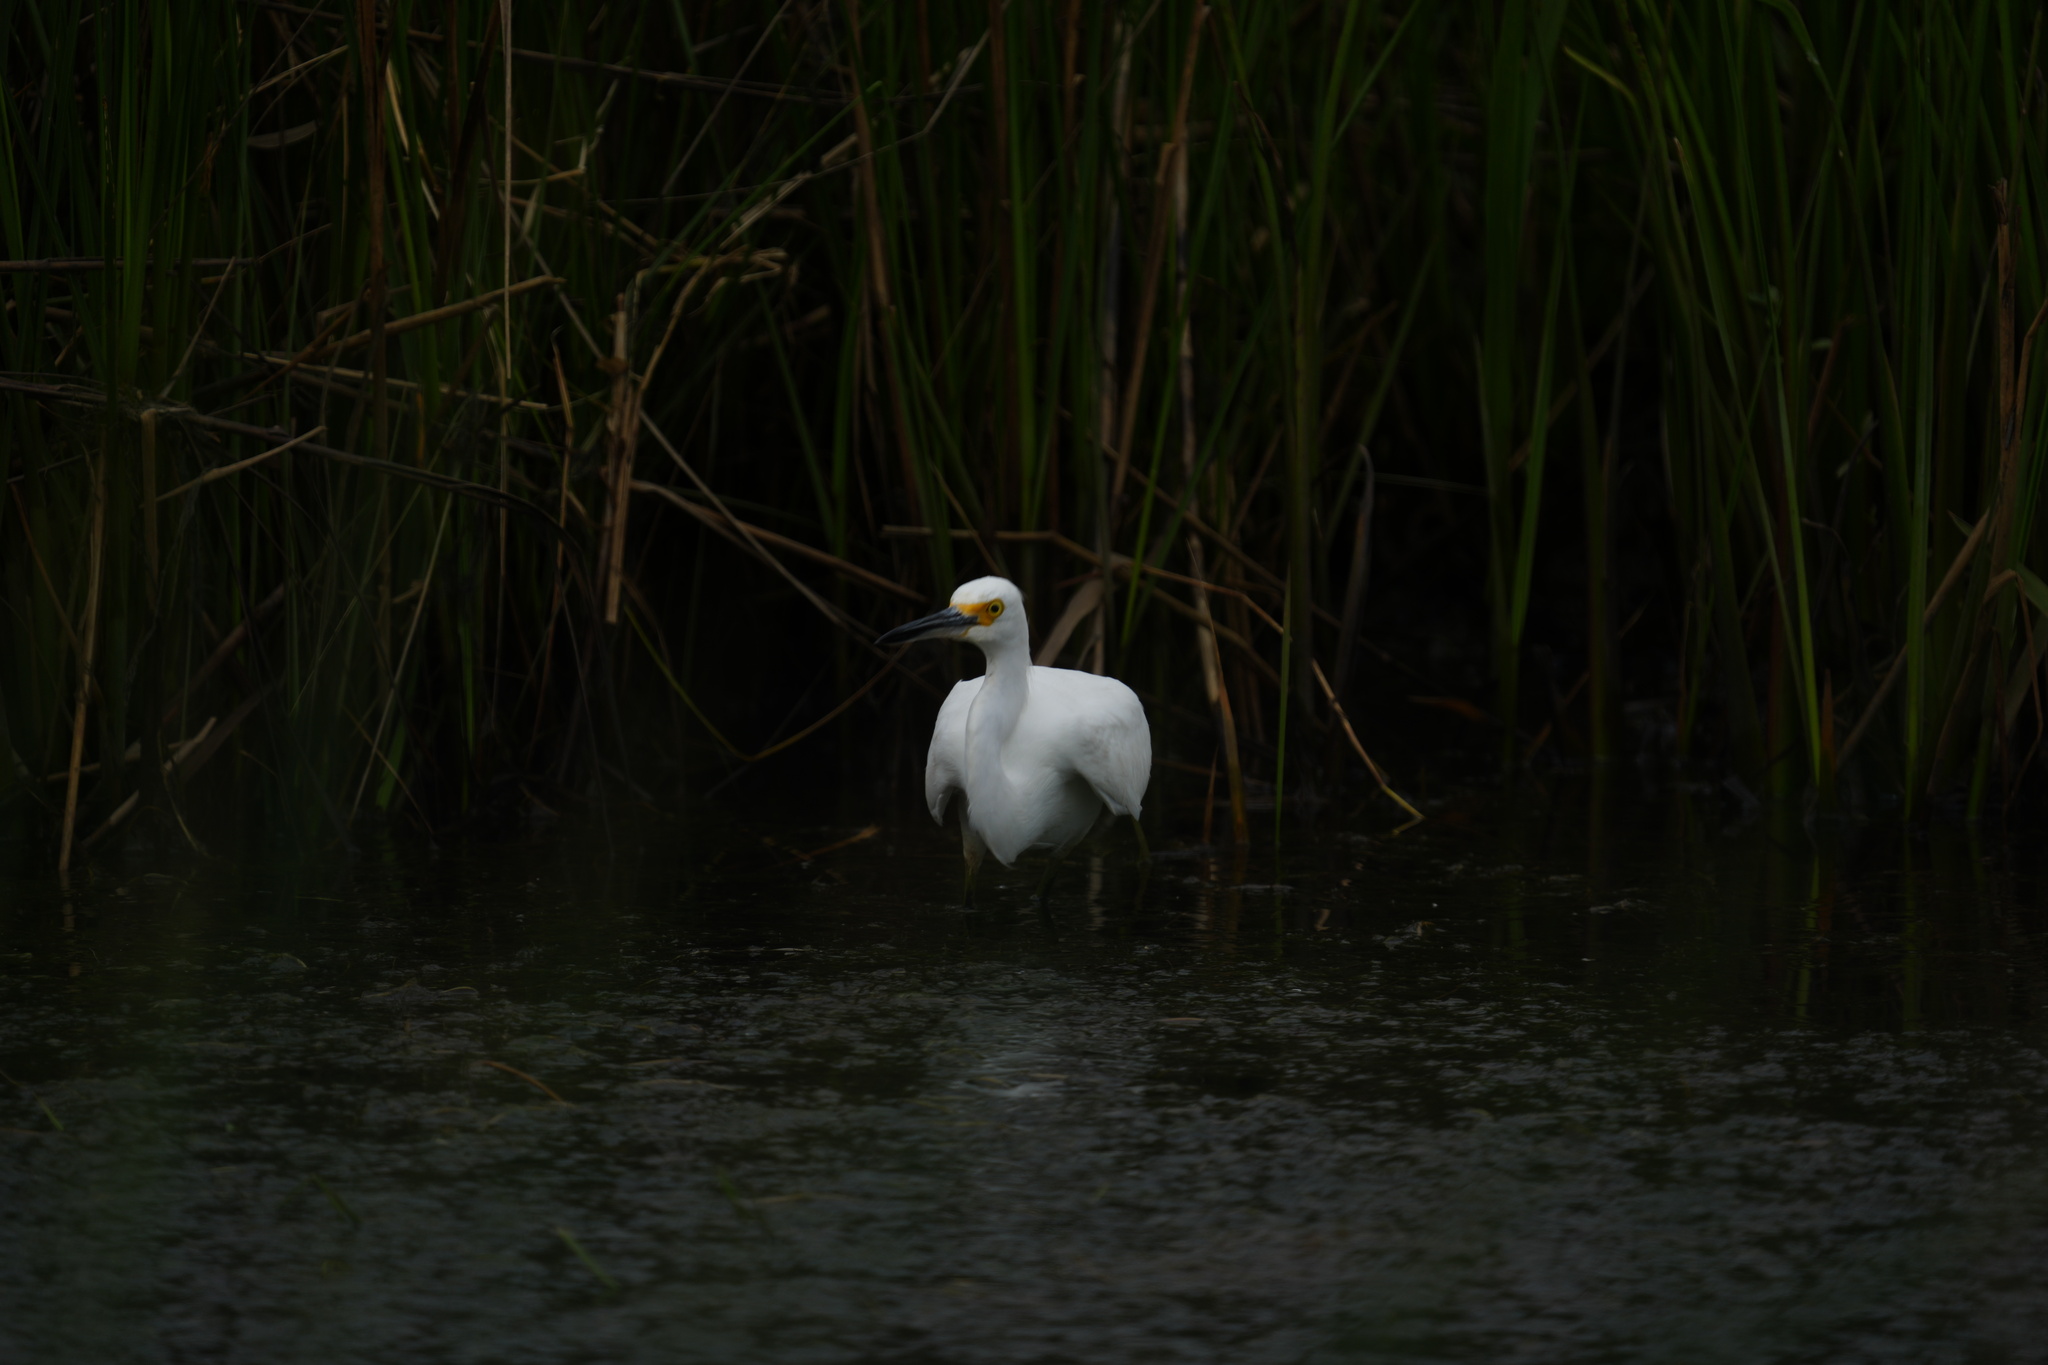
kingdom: Animalia
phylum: Chordata
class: Aves
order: Pelecaniformes
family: Ardeidae
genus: Egretta
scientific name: Egretta thula
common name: Snowy egret
